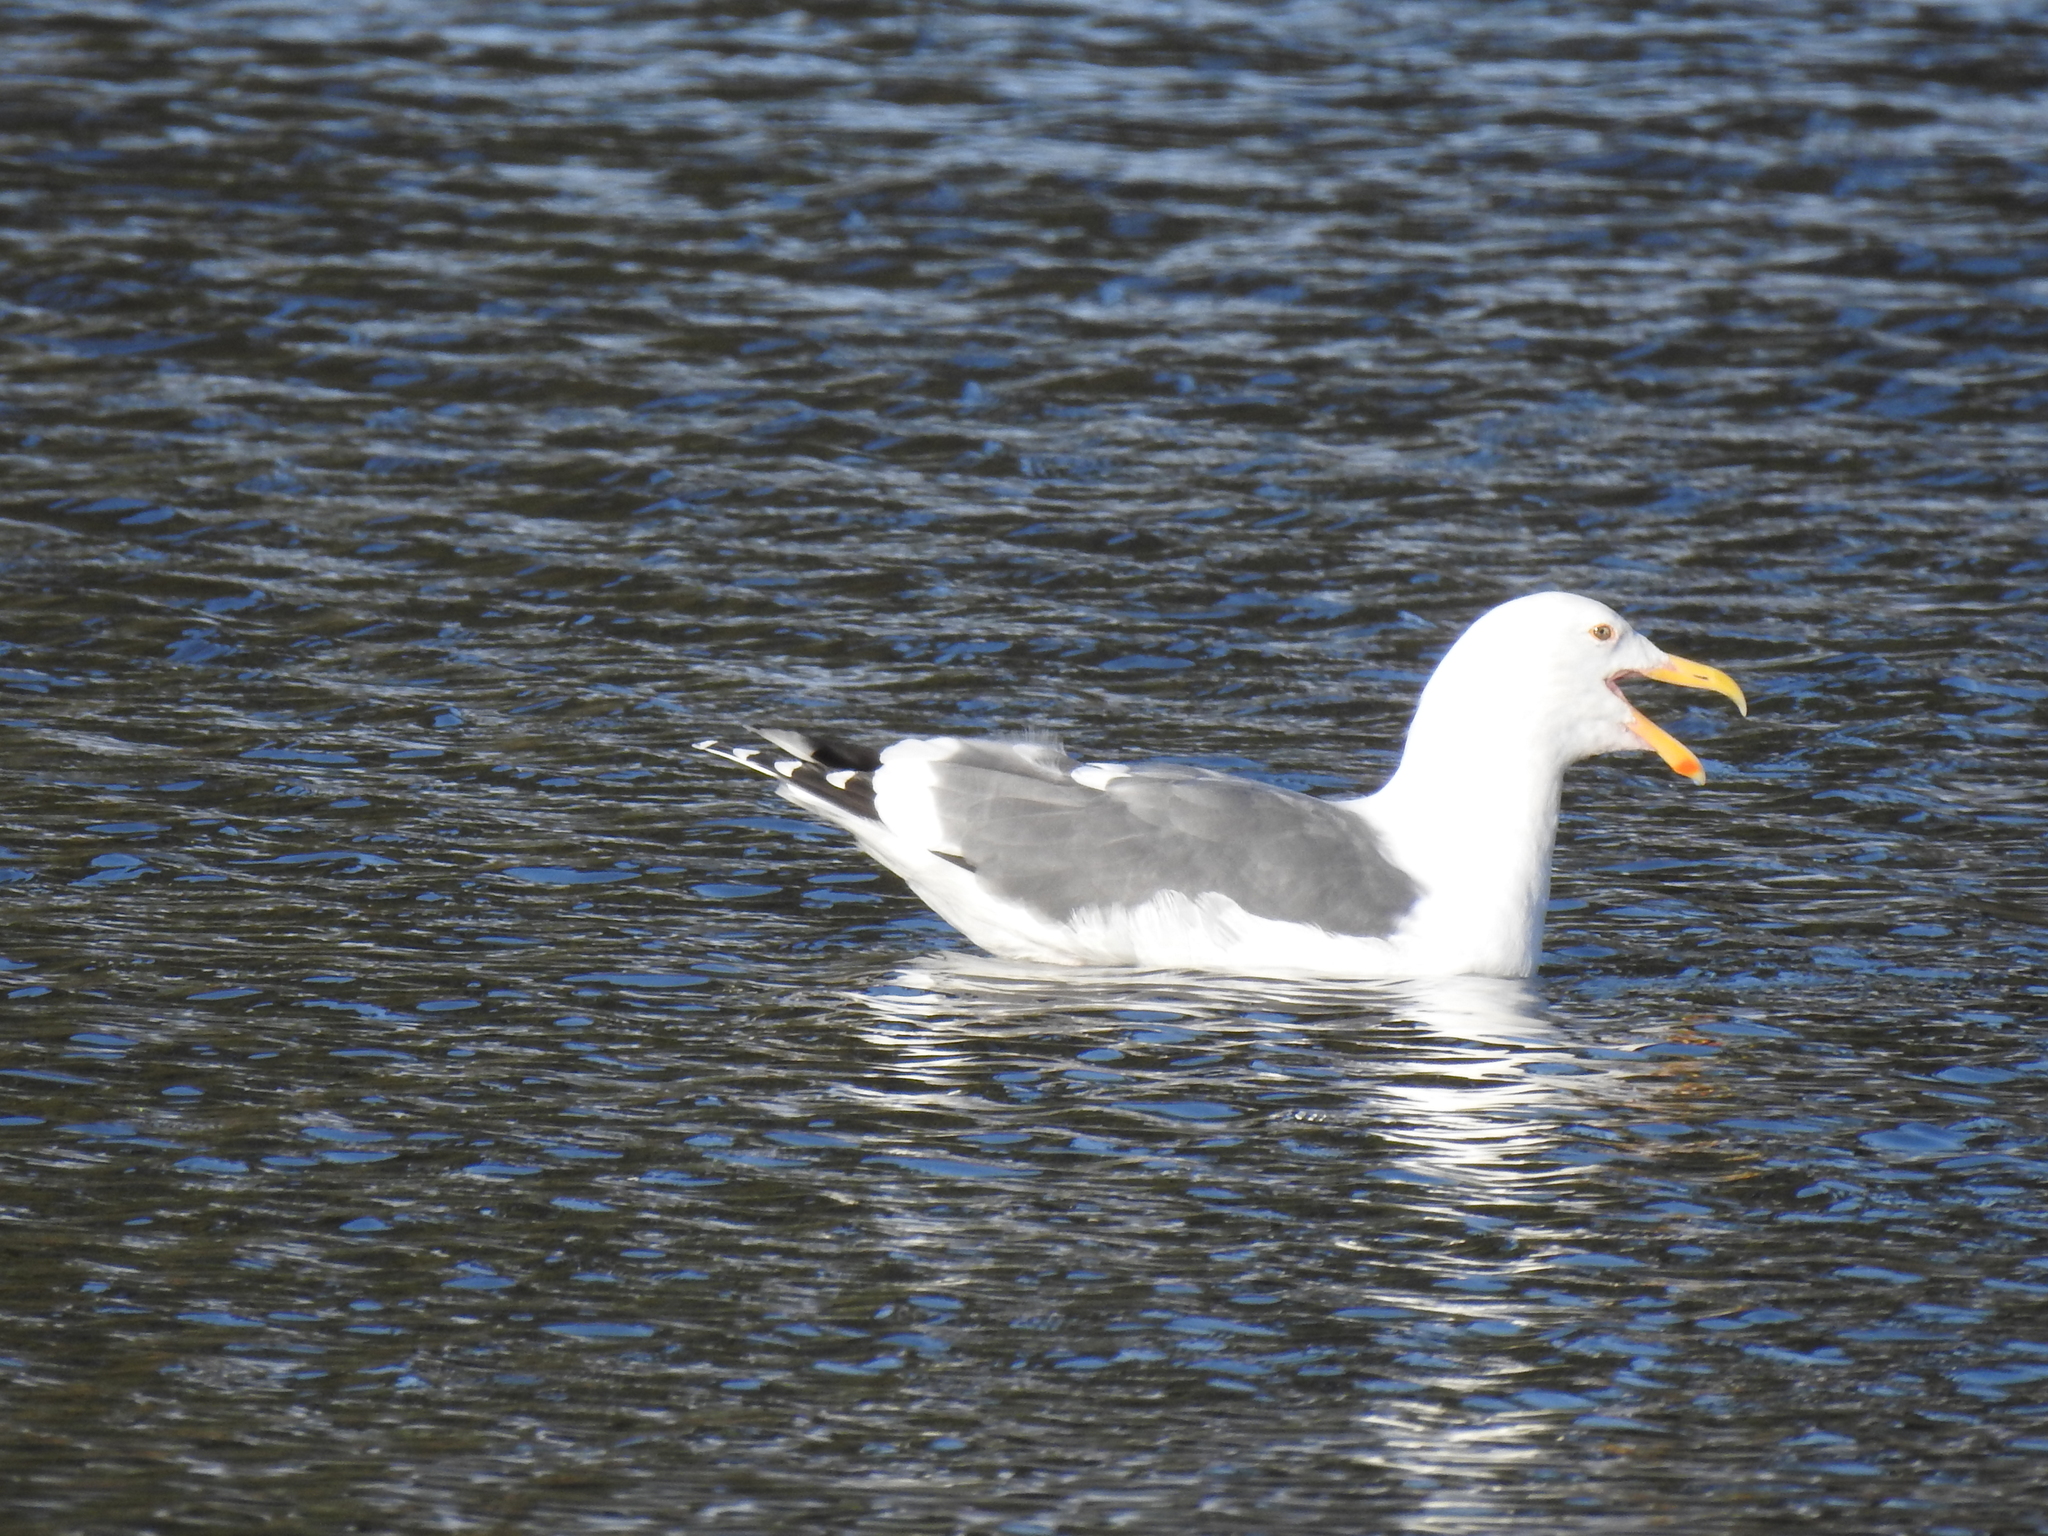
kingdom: Animalia
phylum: Chordata
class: Aves
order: Charadriiformes
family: Laridae
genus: Larus
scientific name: Larus occidentalis
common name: Western gull
